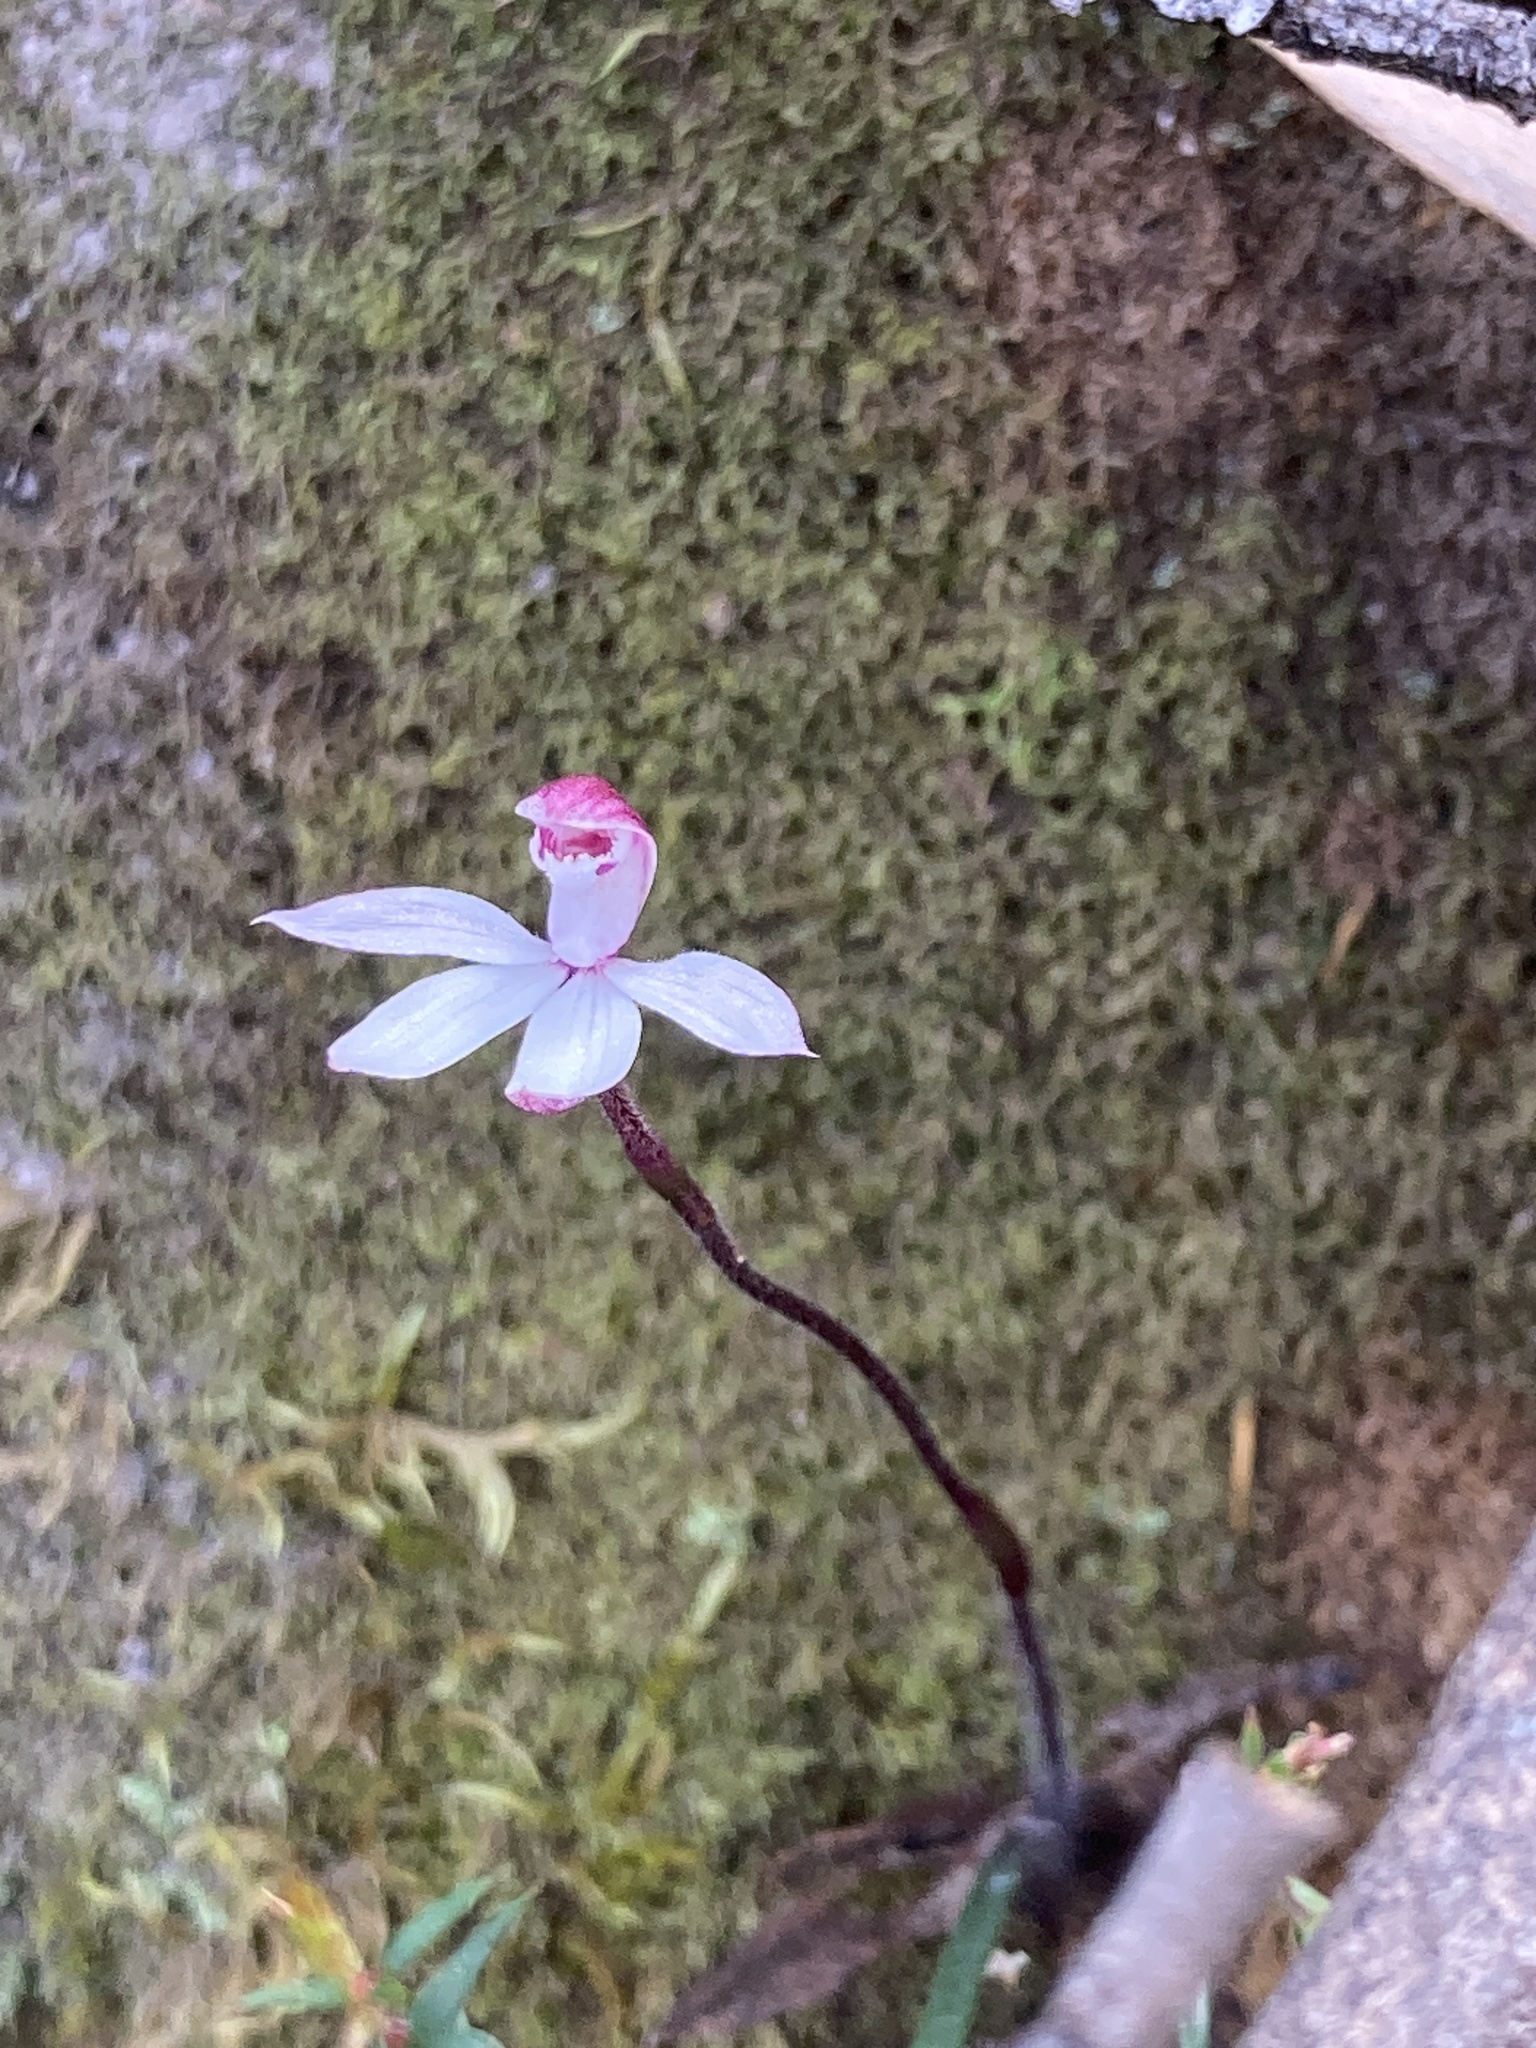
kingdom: Plantae
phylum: Tracheophyta
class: Liliopsida
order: Asparagales
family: Orchidaceae
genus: Caladenia
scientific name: Caladenia alpina
